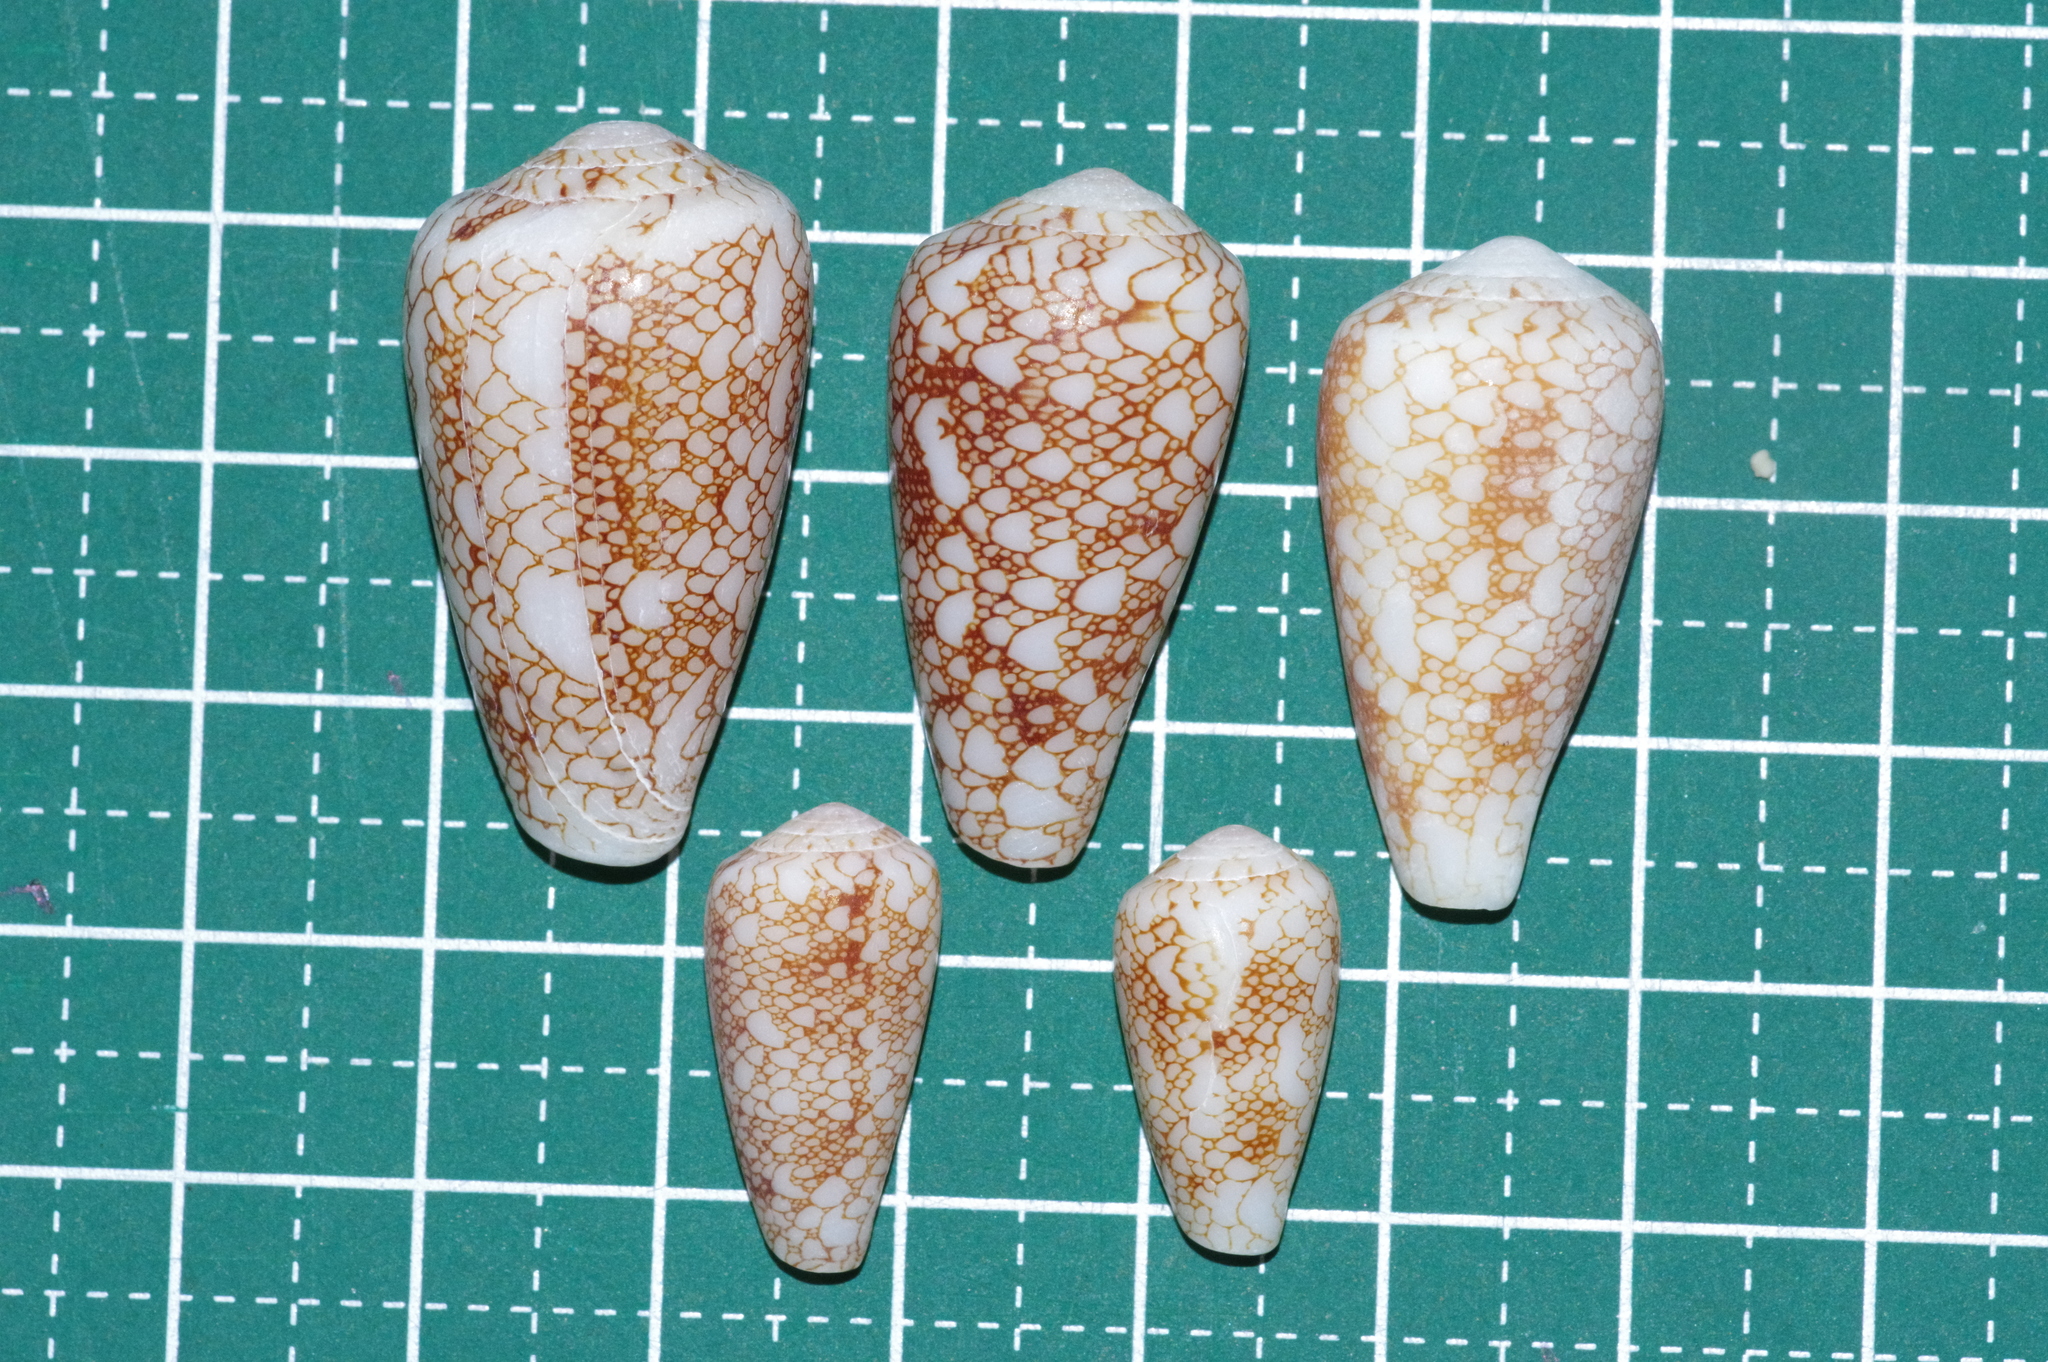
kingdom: Animalia
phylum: Mollusca
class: Gastropoda
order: Neogastropoda
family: Conidae
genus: Conus
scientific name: Conus omaria
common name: Omaria cone
